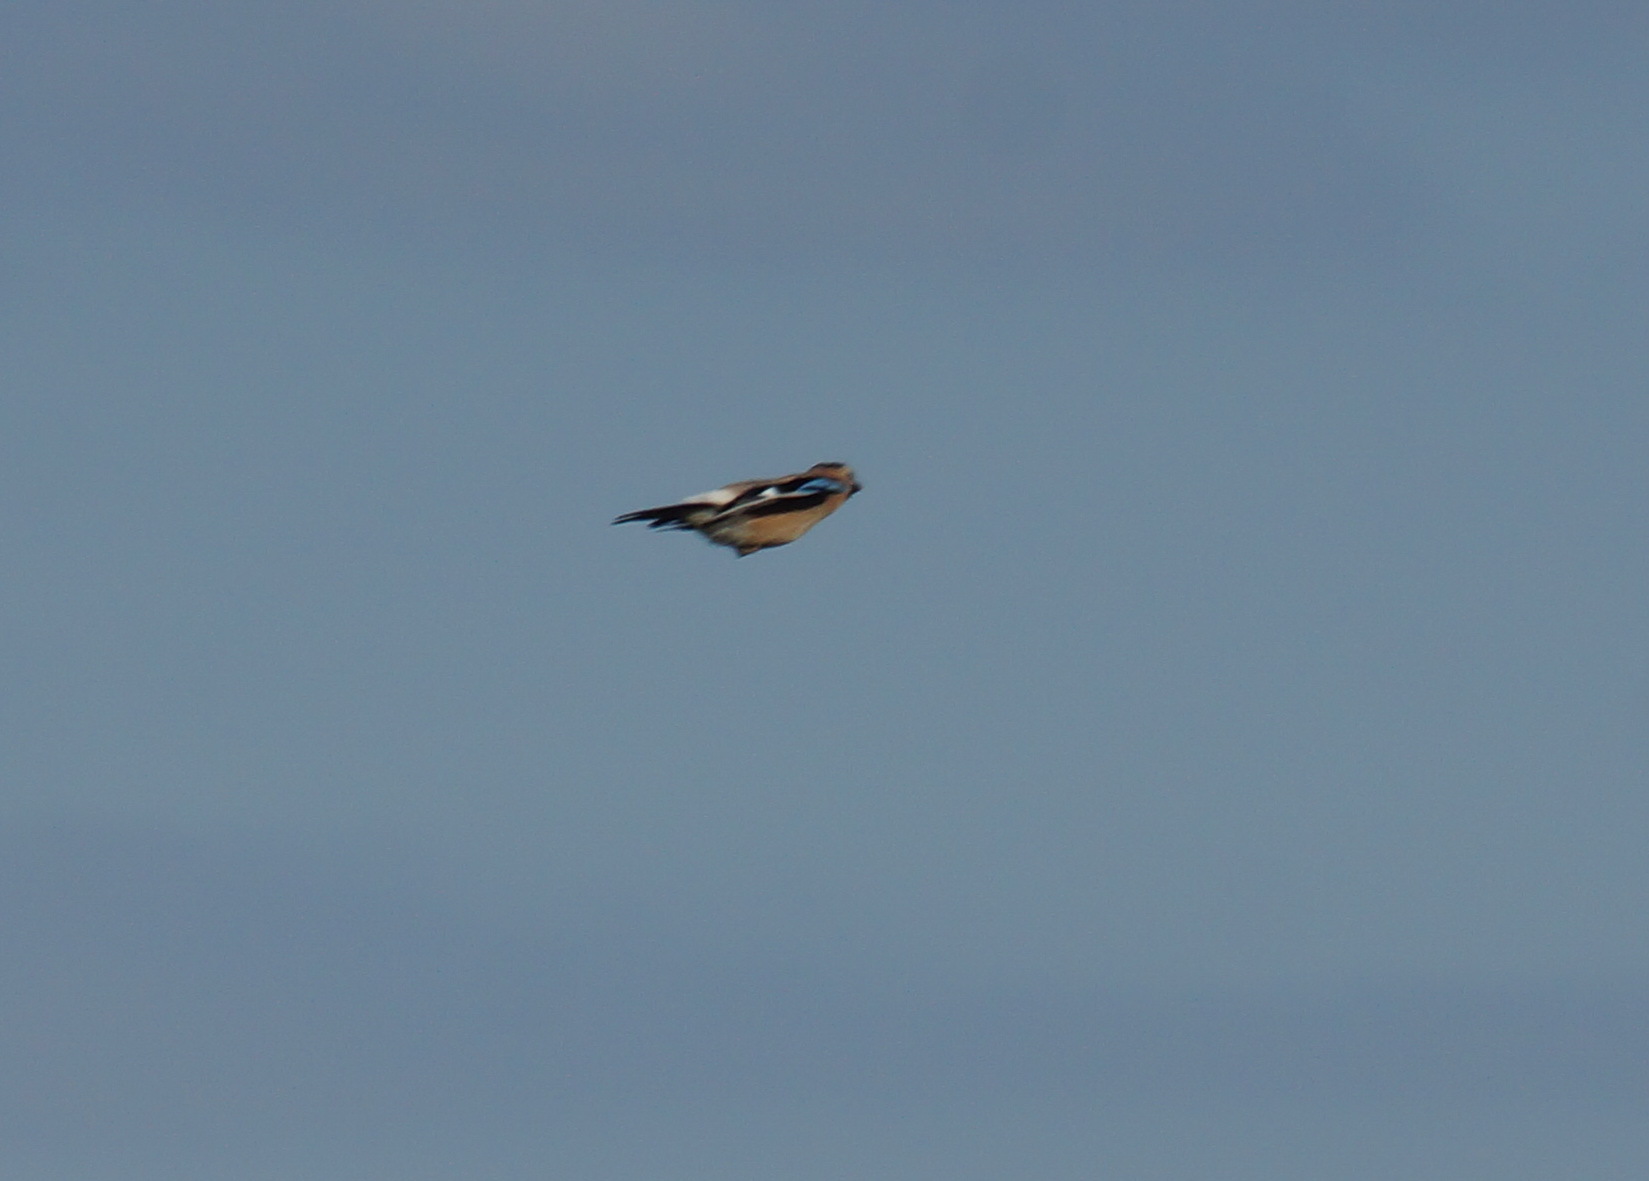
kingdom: Animalia
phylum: Chordata
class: Aves
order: Passeriformes
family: Corvidae
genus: Garrulus
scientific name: Garrulus glandarius
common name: Eurasian jay
